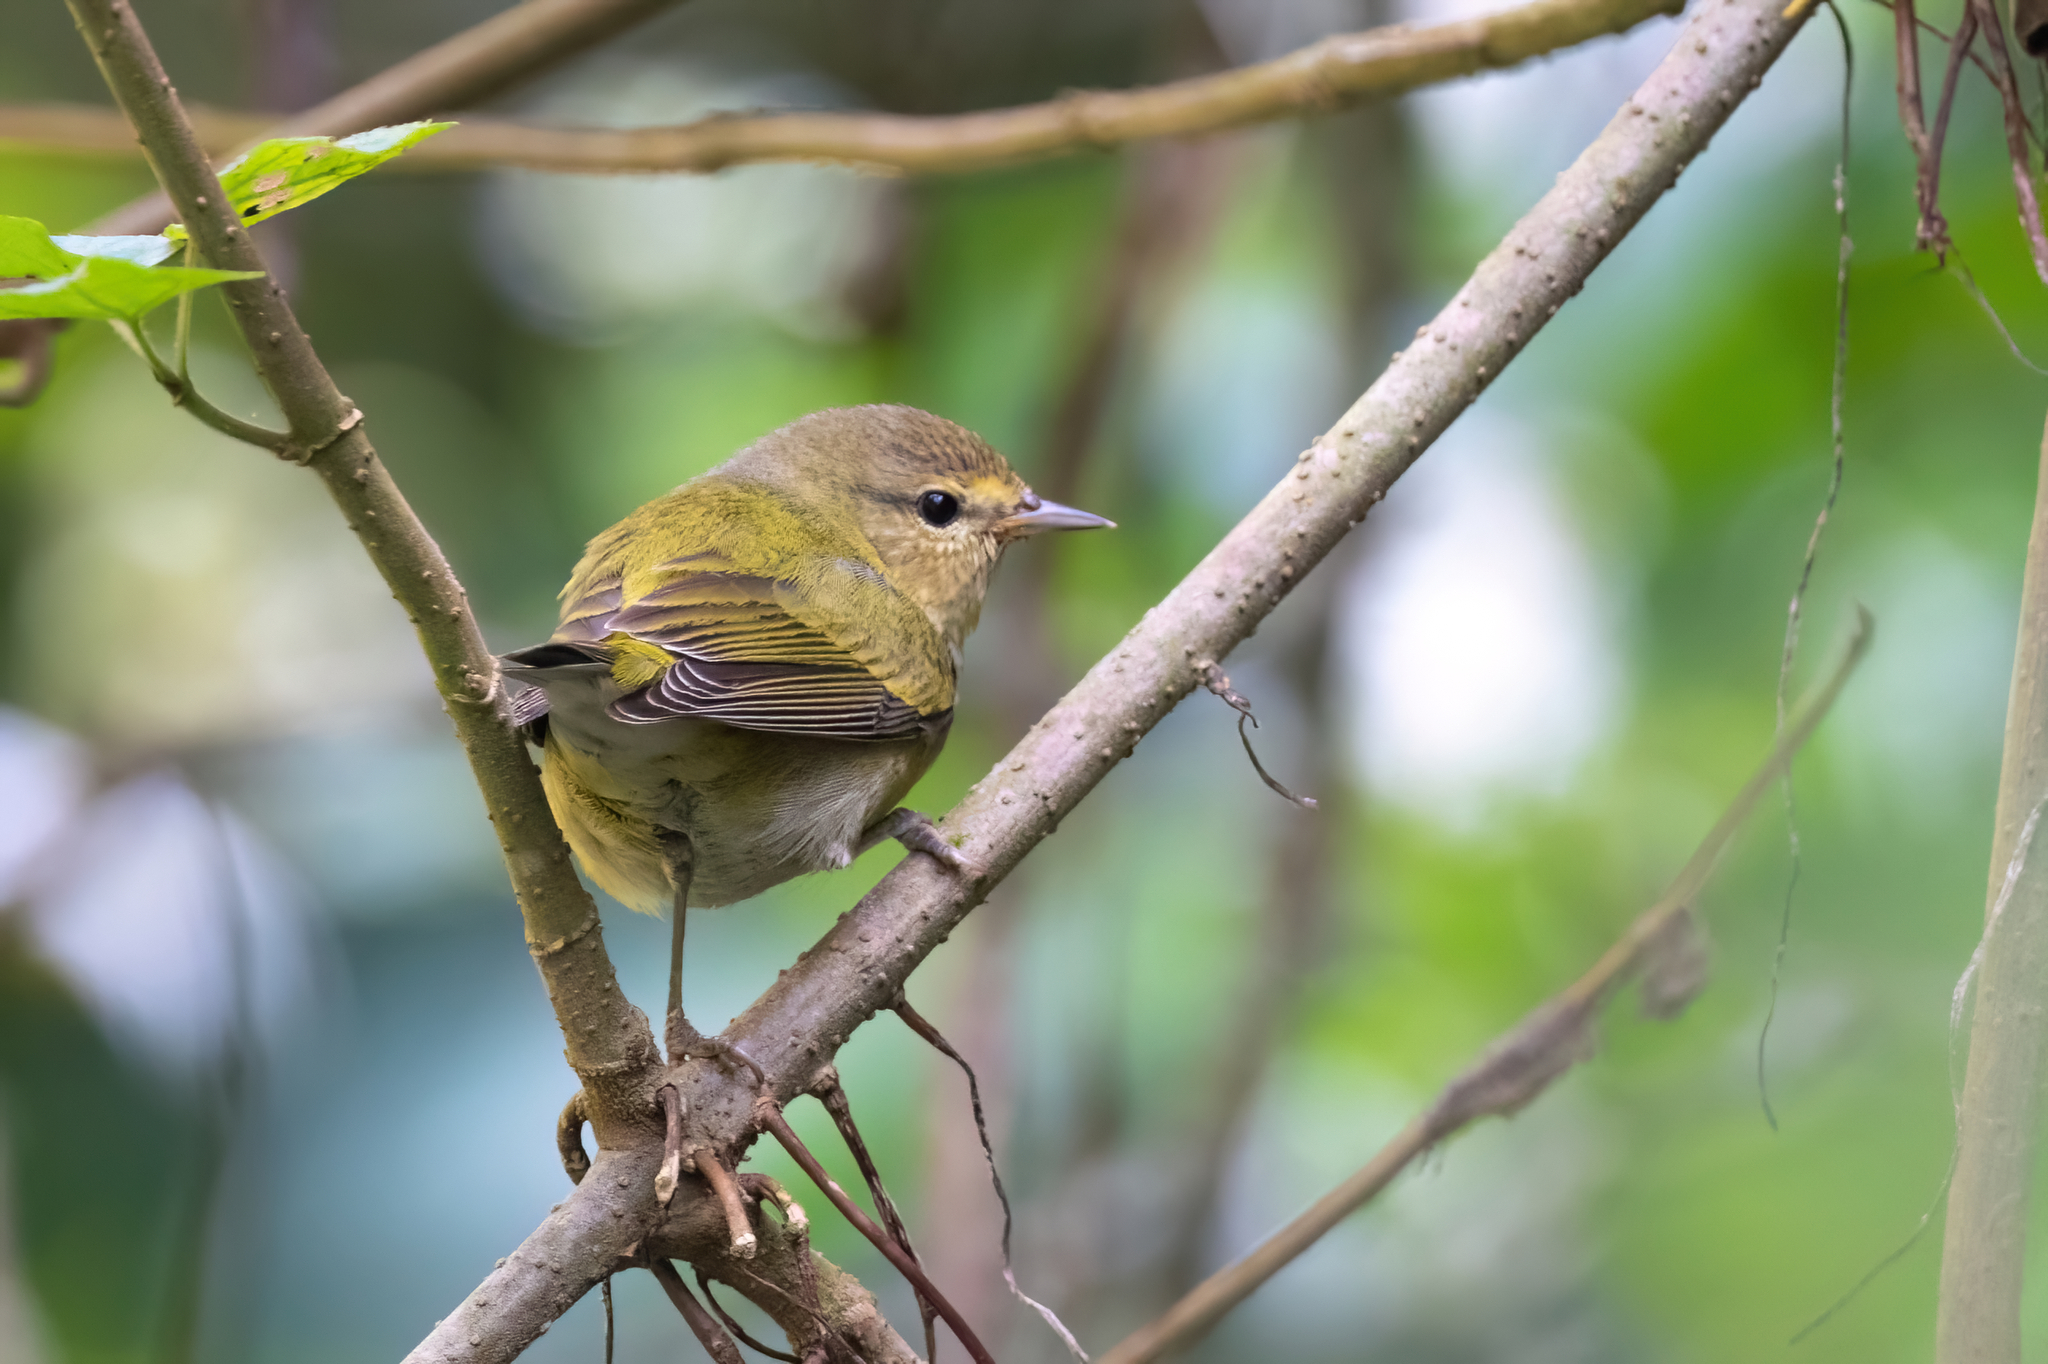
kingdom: Animalia
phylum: Chordata
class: Aves
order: Passeriformes
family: Parulidae
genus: Leiothlypis
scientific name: Leiothlypis peregrina
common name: Tennessee warbler
